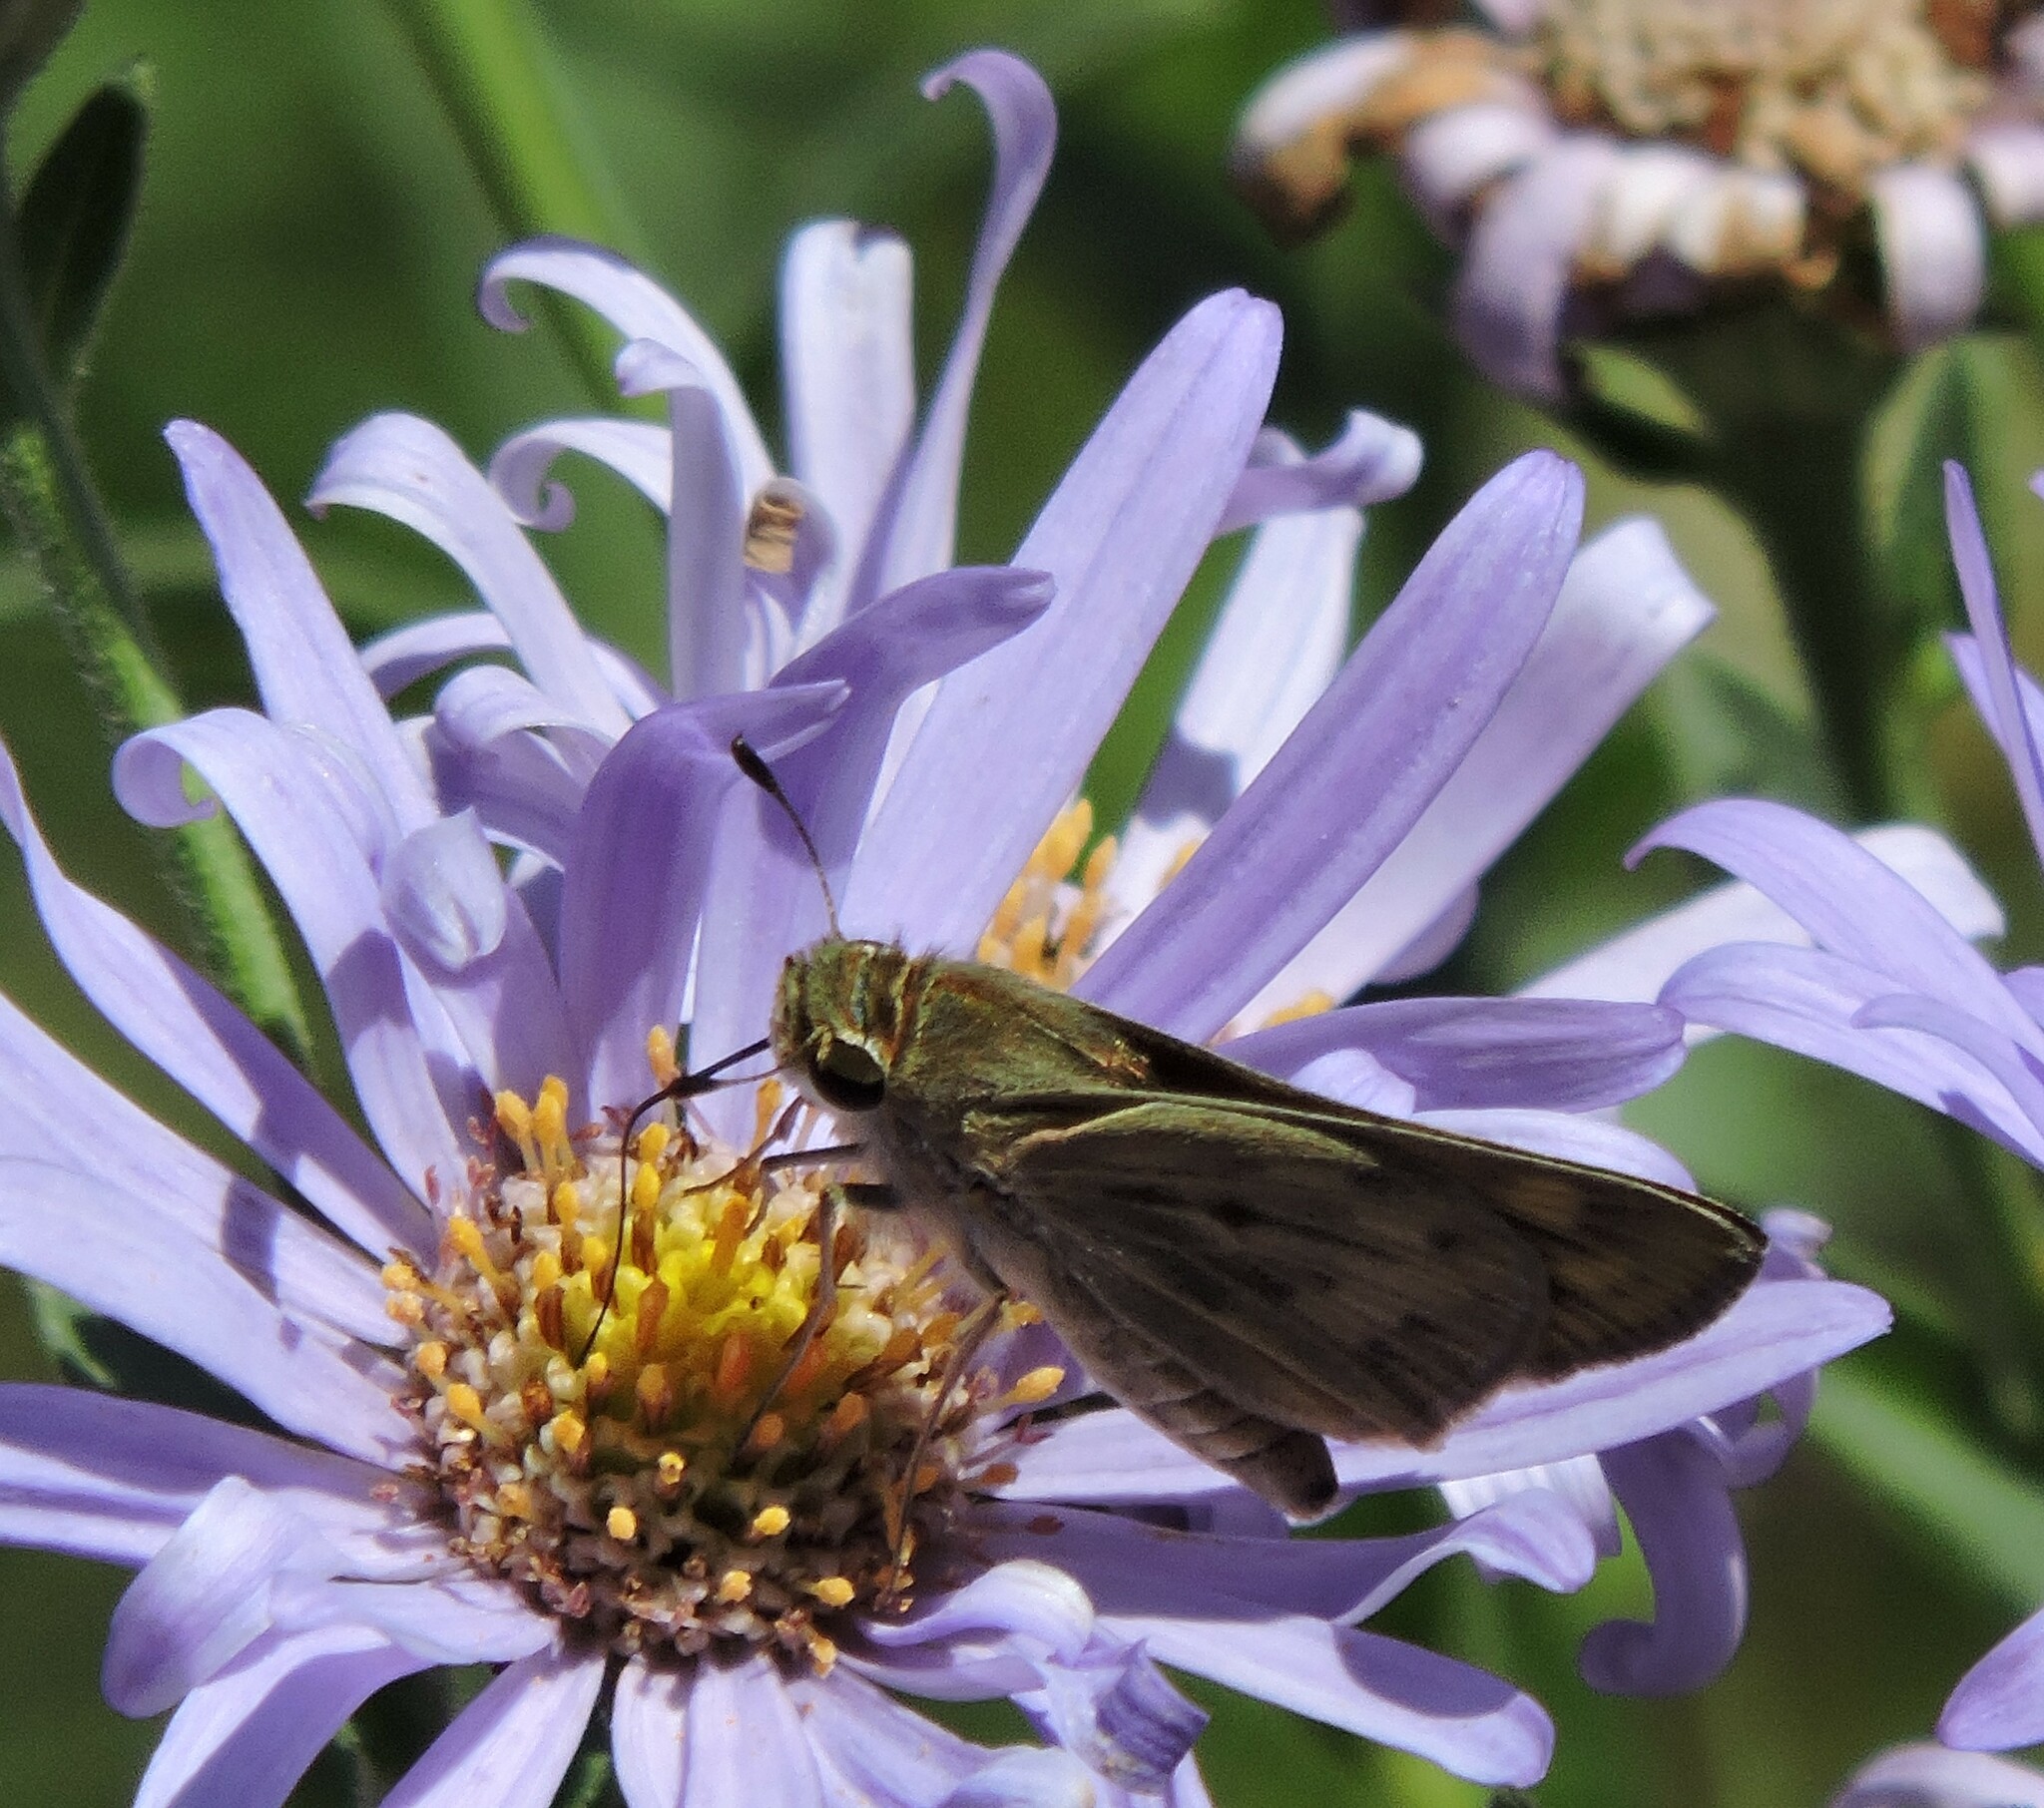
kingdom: Animalia
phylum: Arthropoda
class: Insecta
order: Lepidoptera
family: Hesperiidae
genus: Hylephila
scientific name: Hylephila phyleus
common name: Fiery skipper
